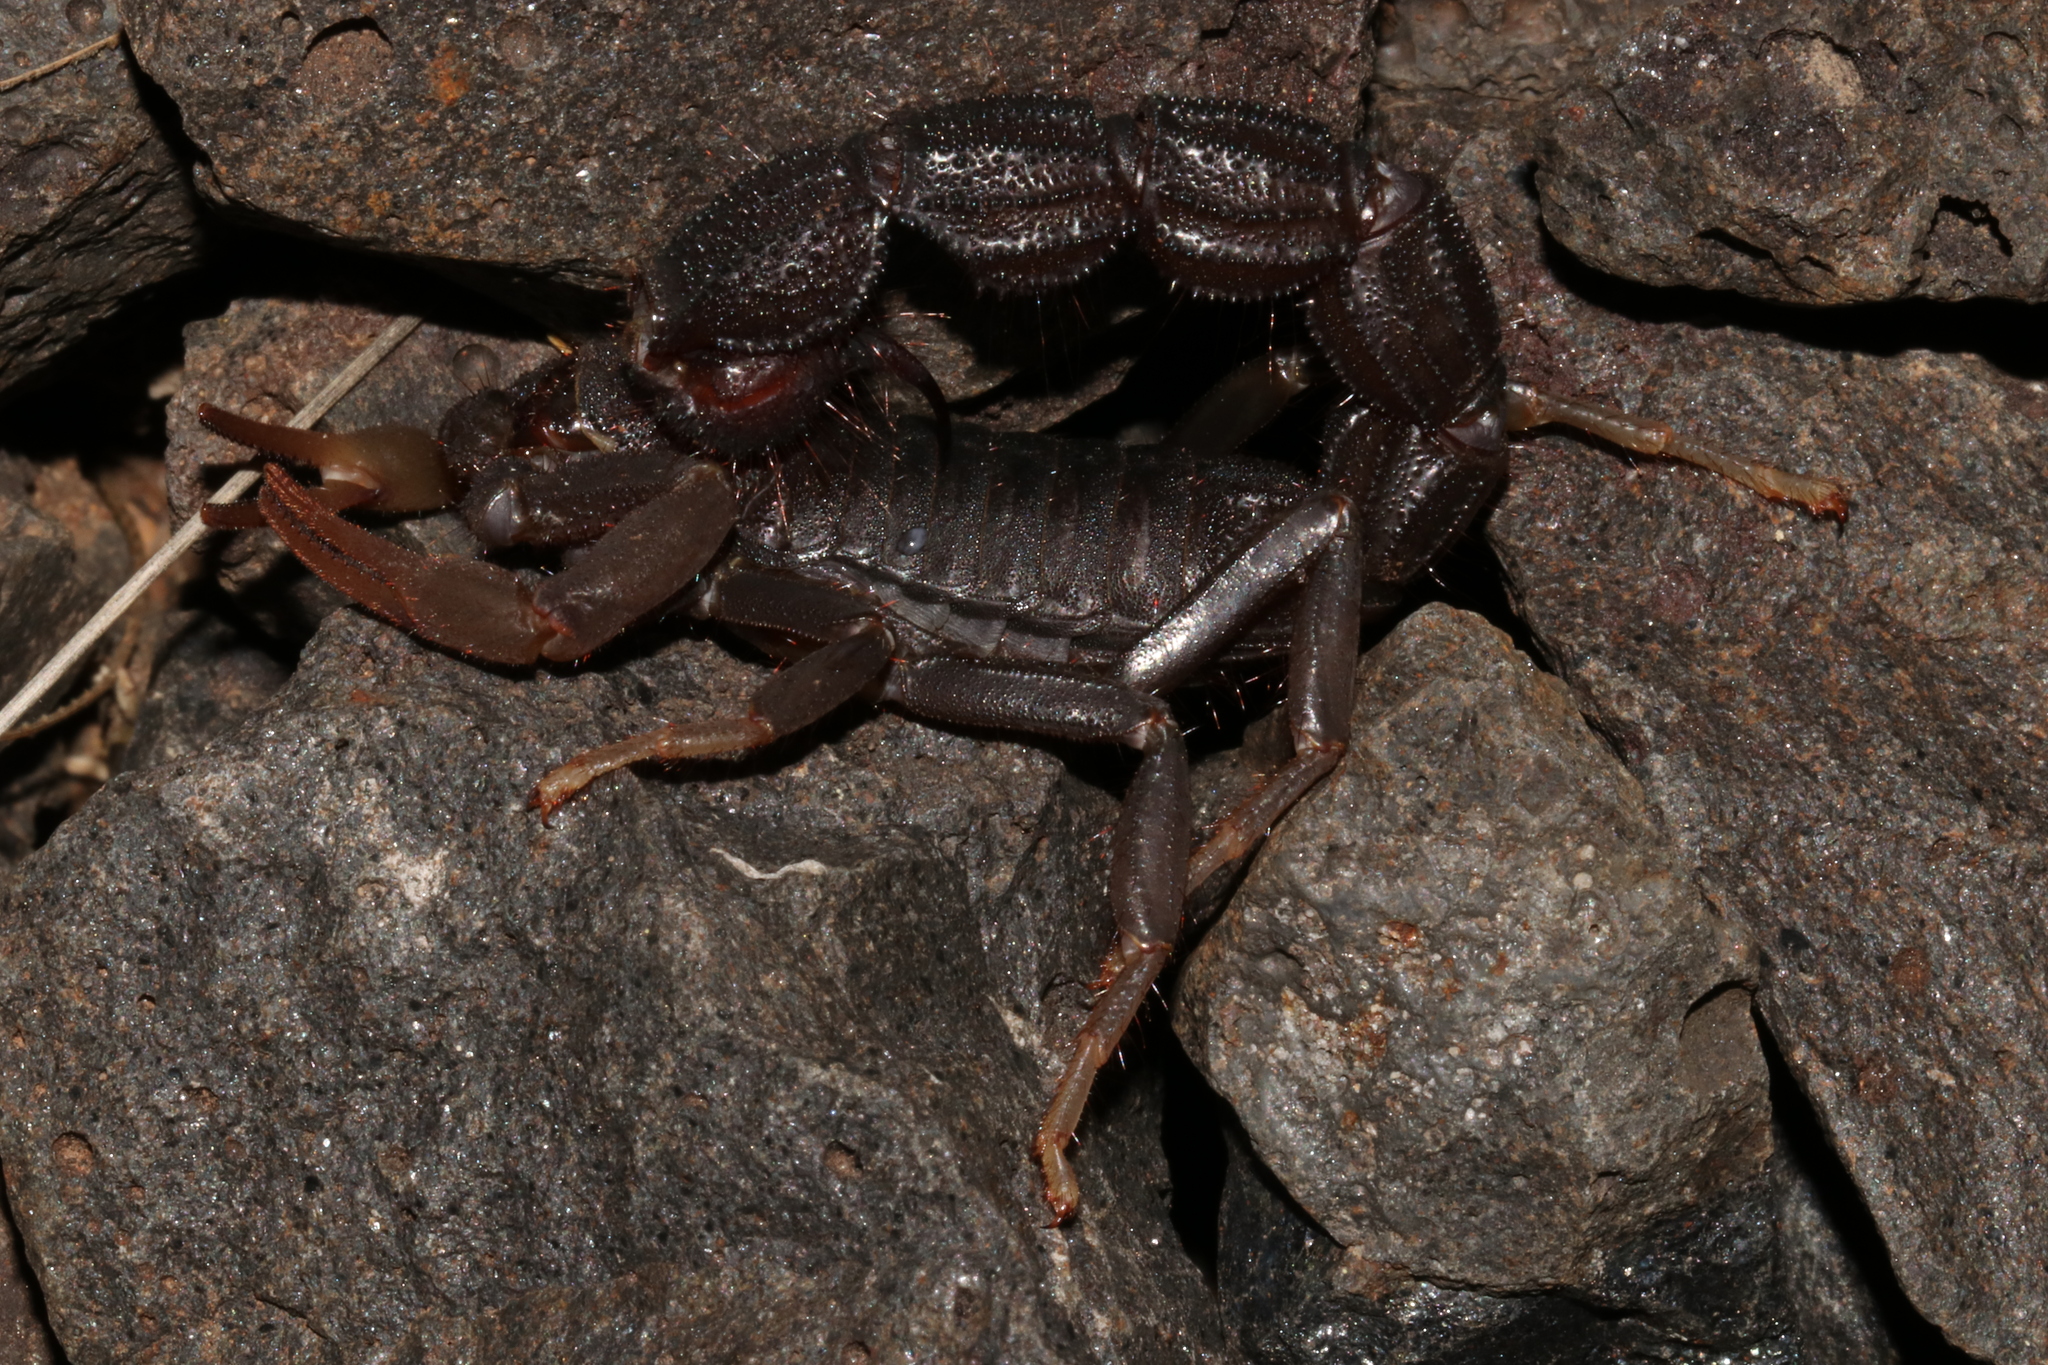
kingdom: Animalia
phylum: Arthropoda
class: Arachnida
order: Scorpiones
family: Buthidae
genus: Parabuthus
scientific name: Parabuthus transvaalicus
